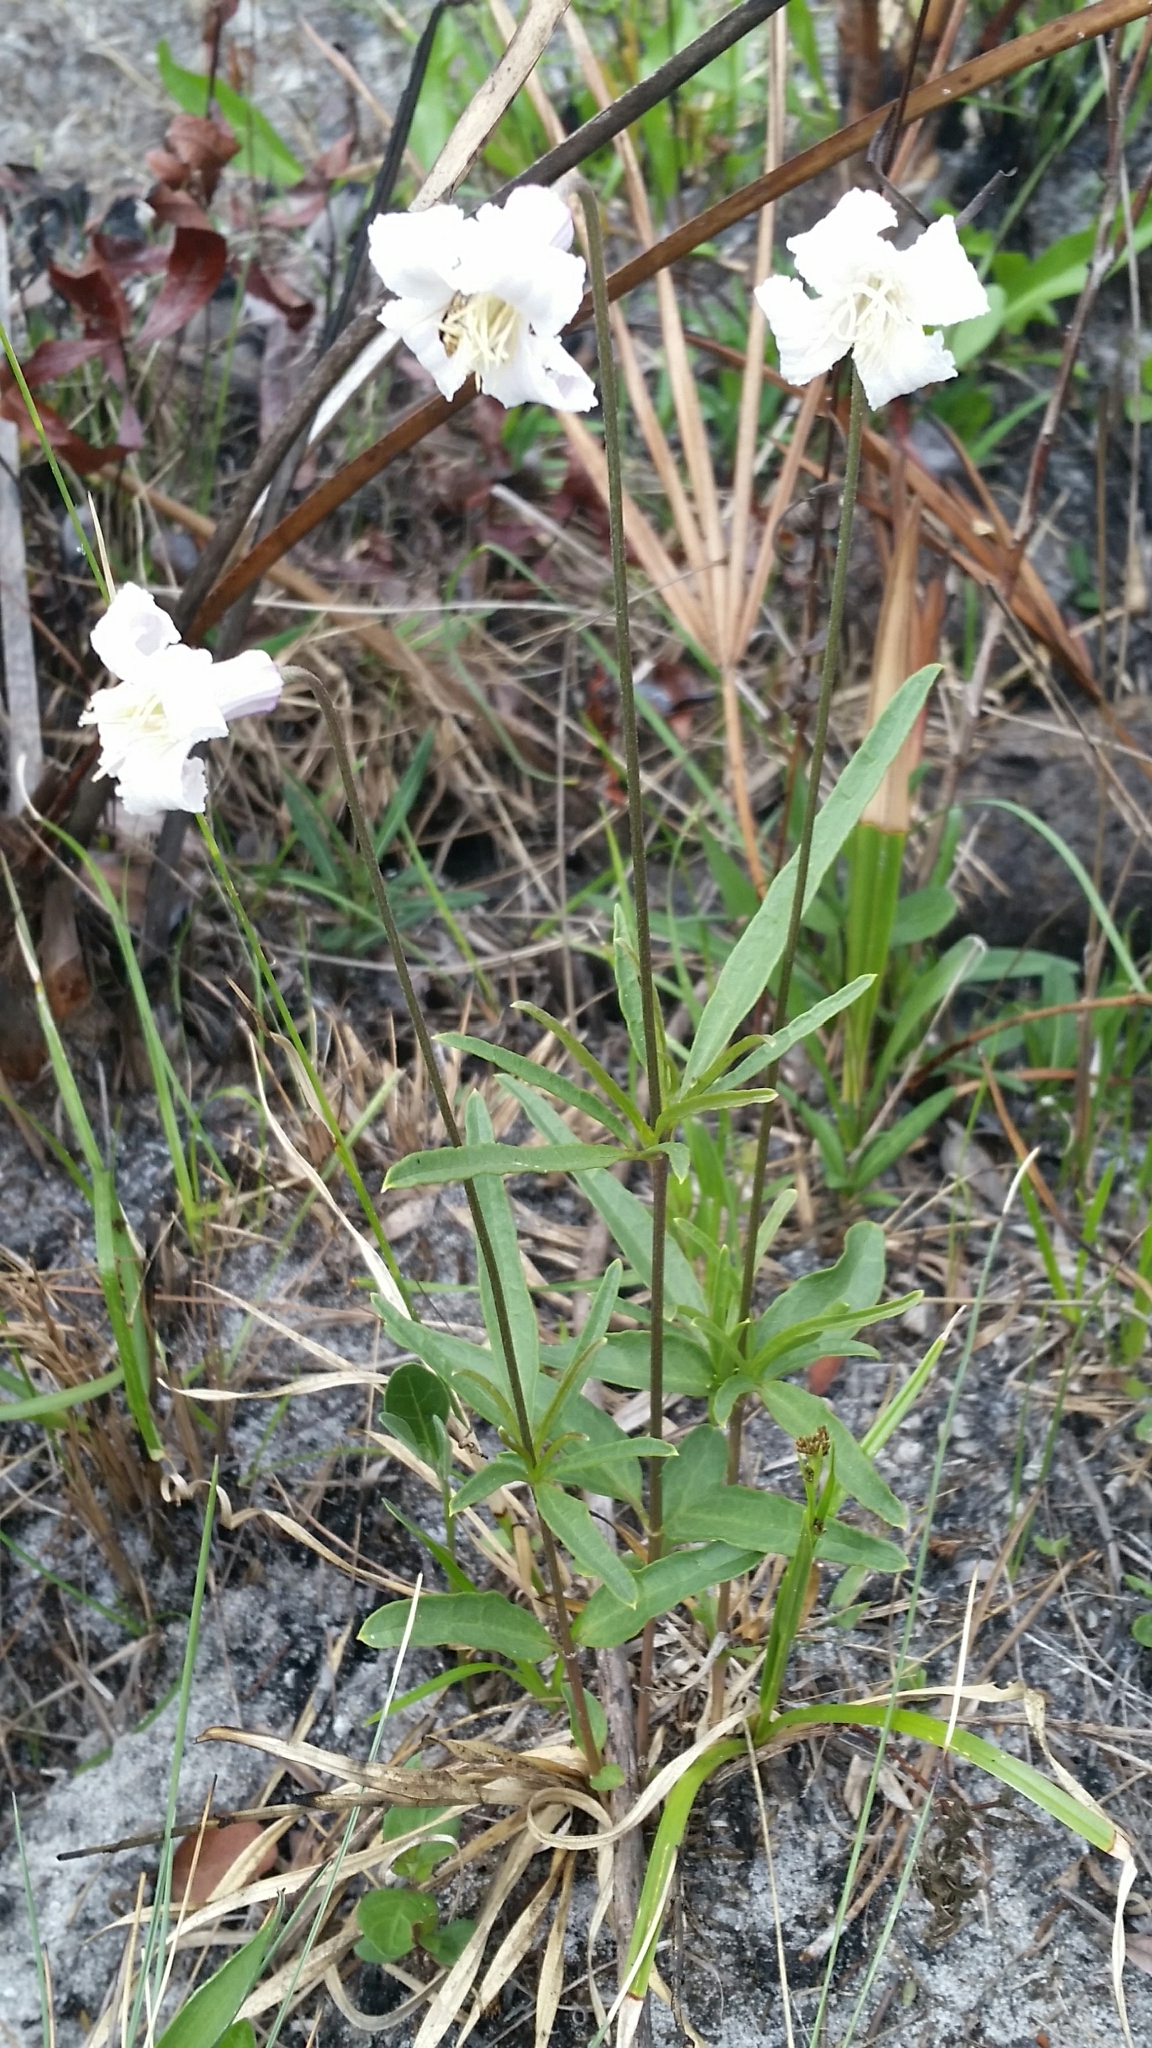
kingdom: Plantae
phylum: Tracheophyta
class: Magnoliopsida
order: Ranunculales
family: Ranunculaceae
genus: Clematis
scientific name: Clematis baldwinii
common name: Pine-hyacinth
